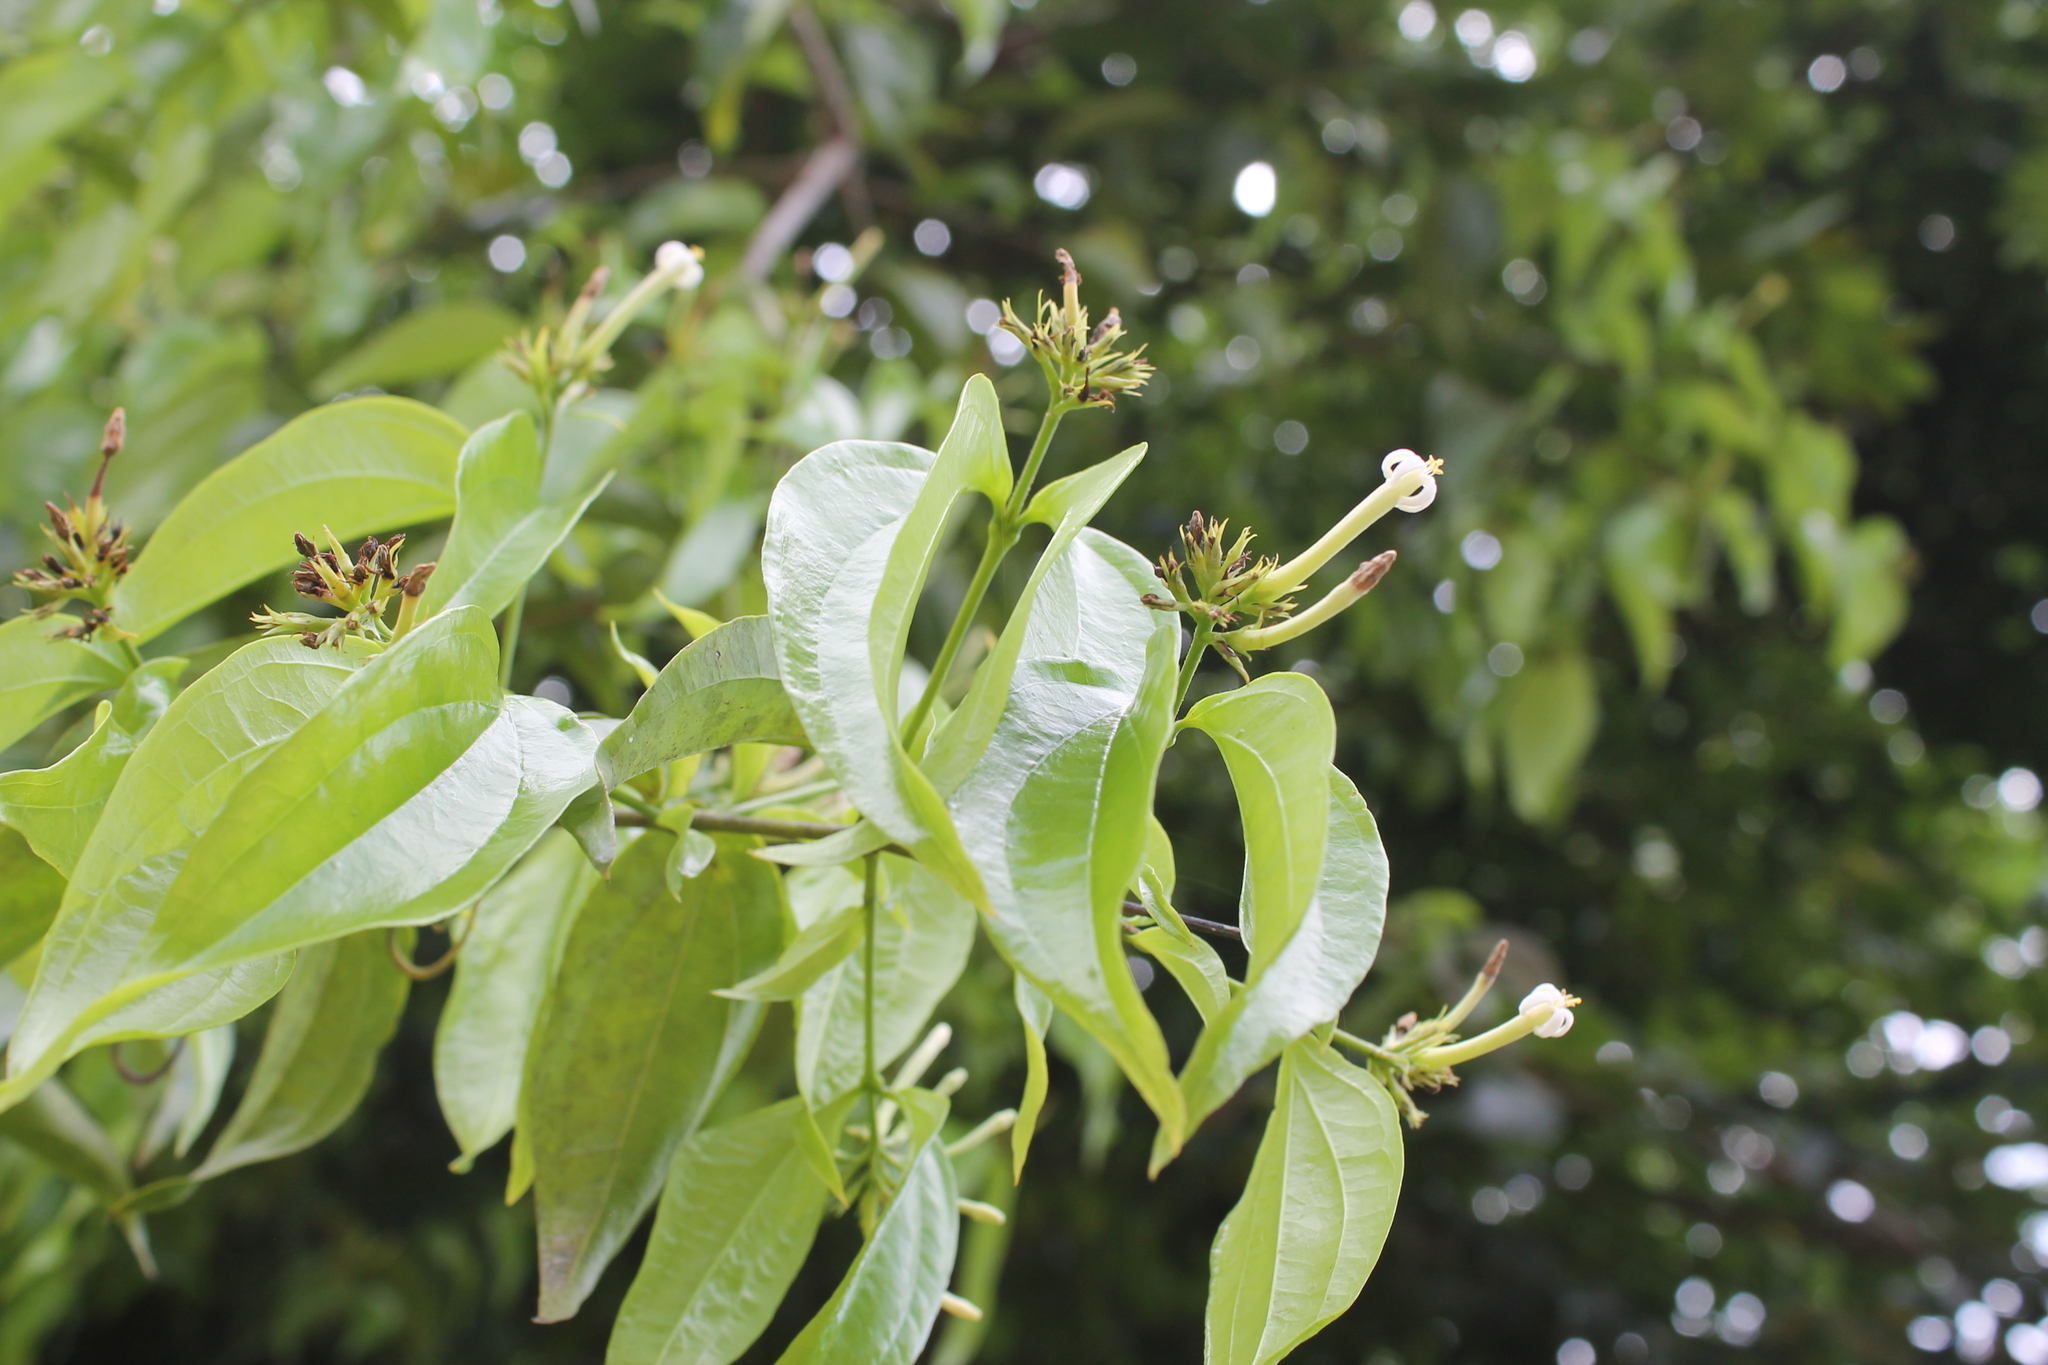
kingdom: Plantae
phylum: Tracheophyta
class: Magnoliopsida
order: Gentianales
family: Loganiaceae
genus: Strychnos
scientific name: Strychnos panamensis
